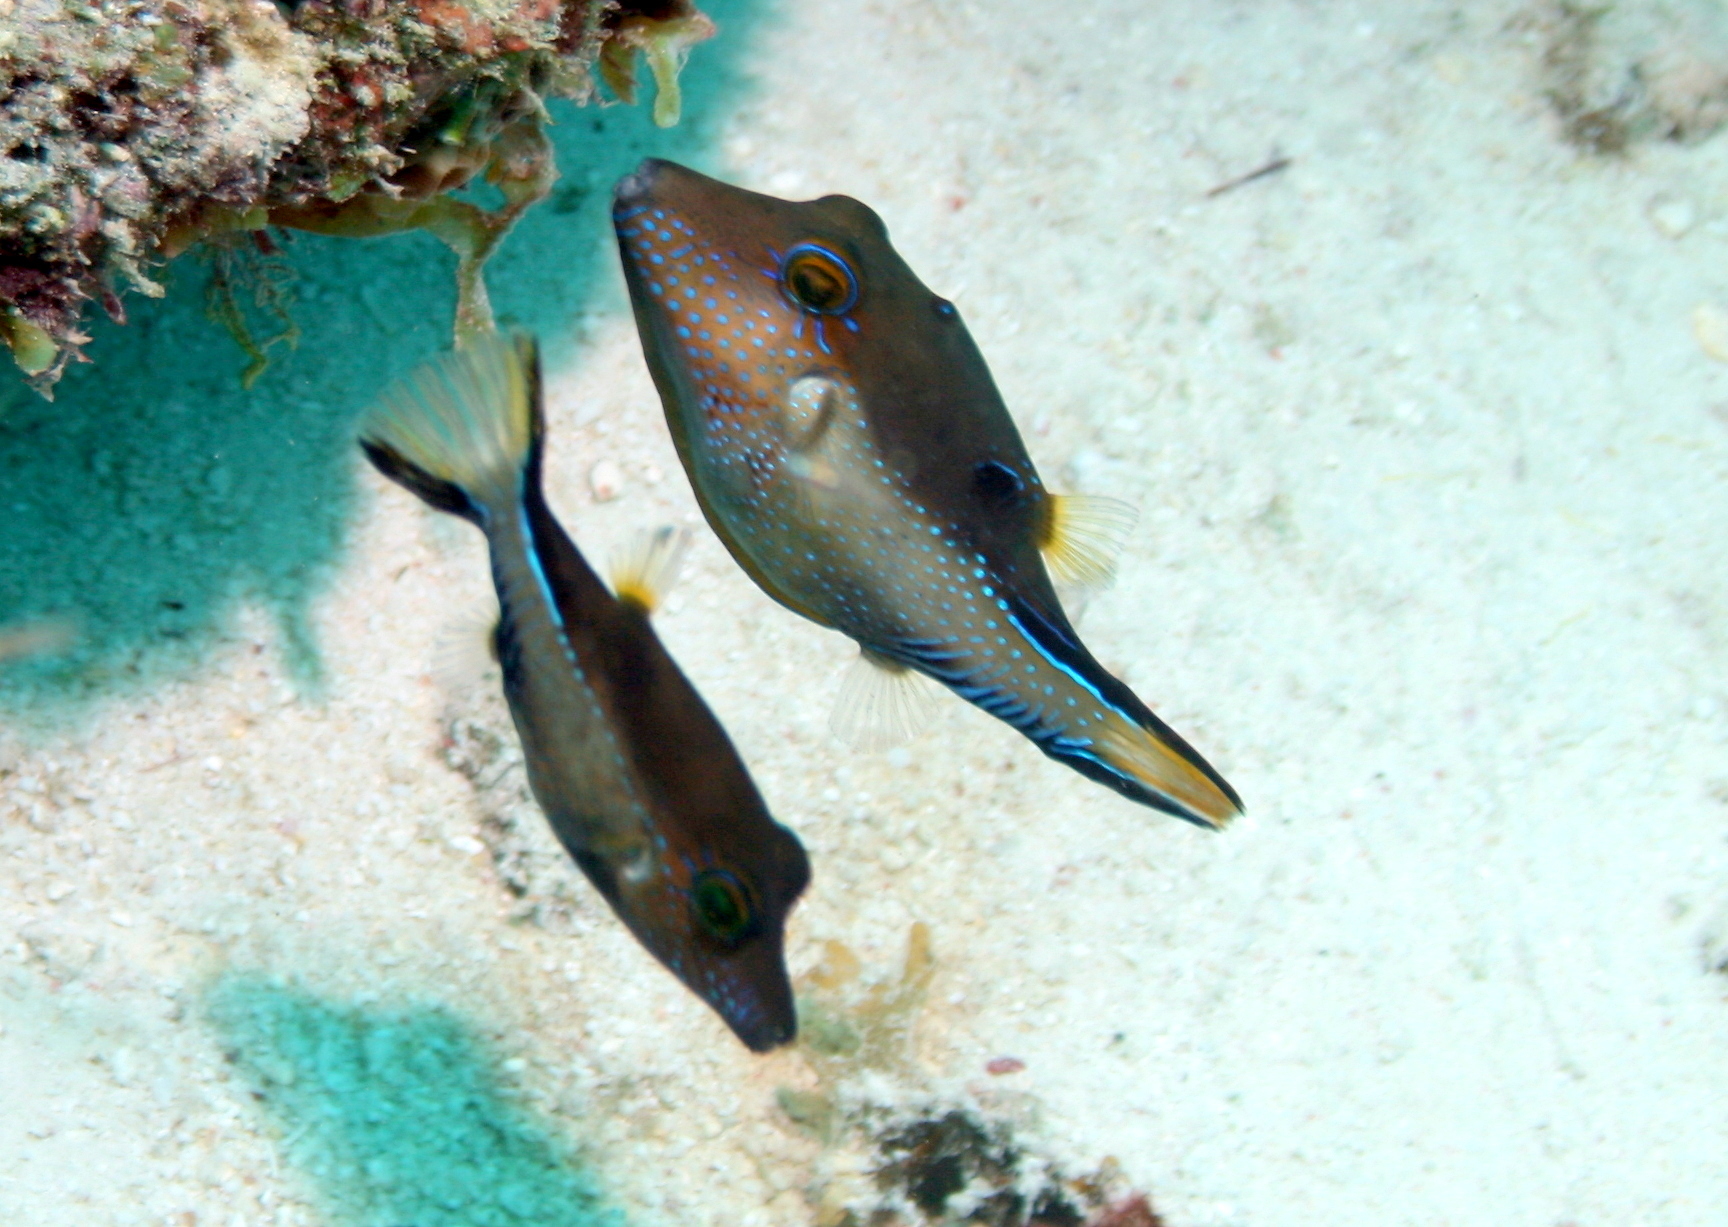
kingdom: Animalia
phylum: Chordata
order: Tetraodontiformes
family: Tetraodontidae
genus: Canthigaster
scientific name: Canthigaster rostrata
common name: Caribbean sharpnose-puffer
